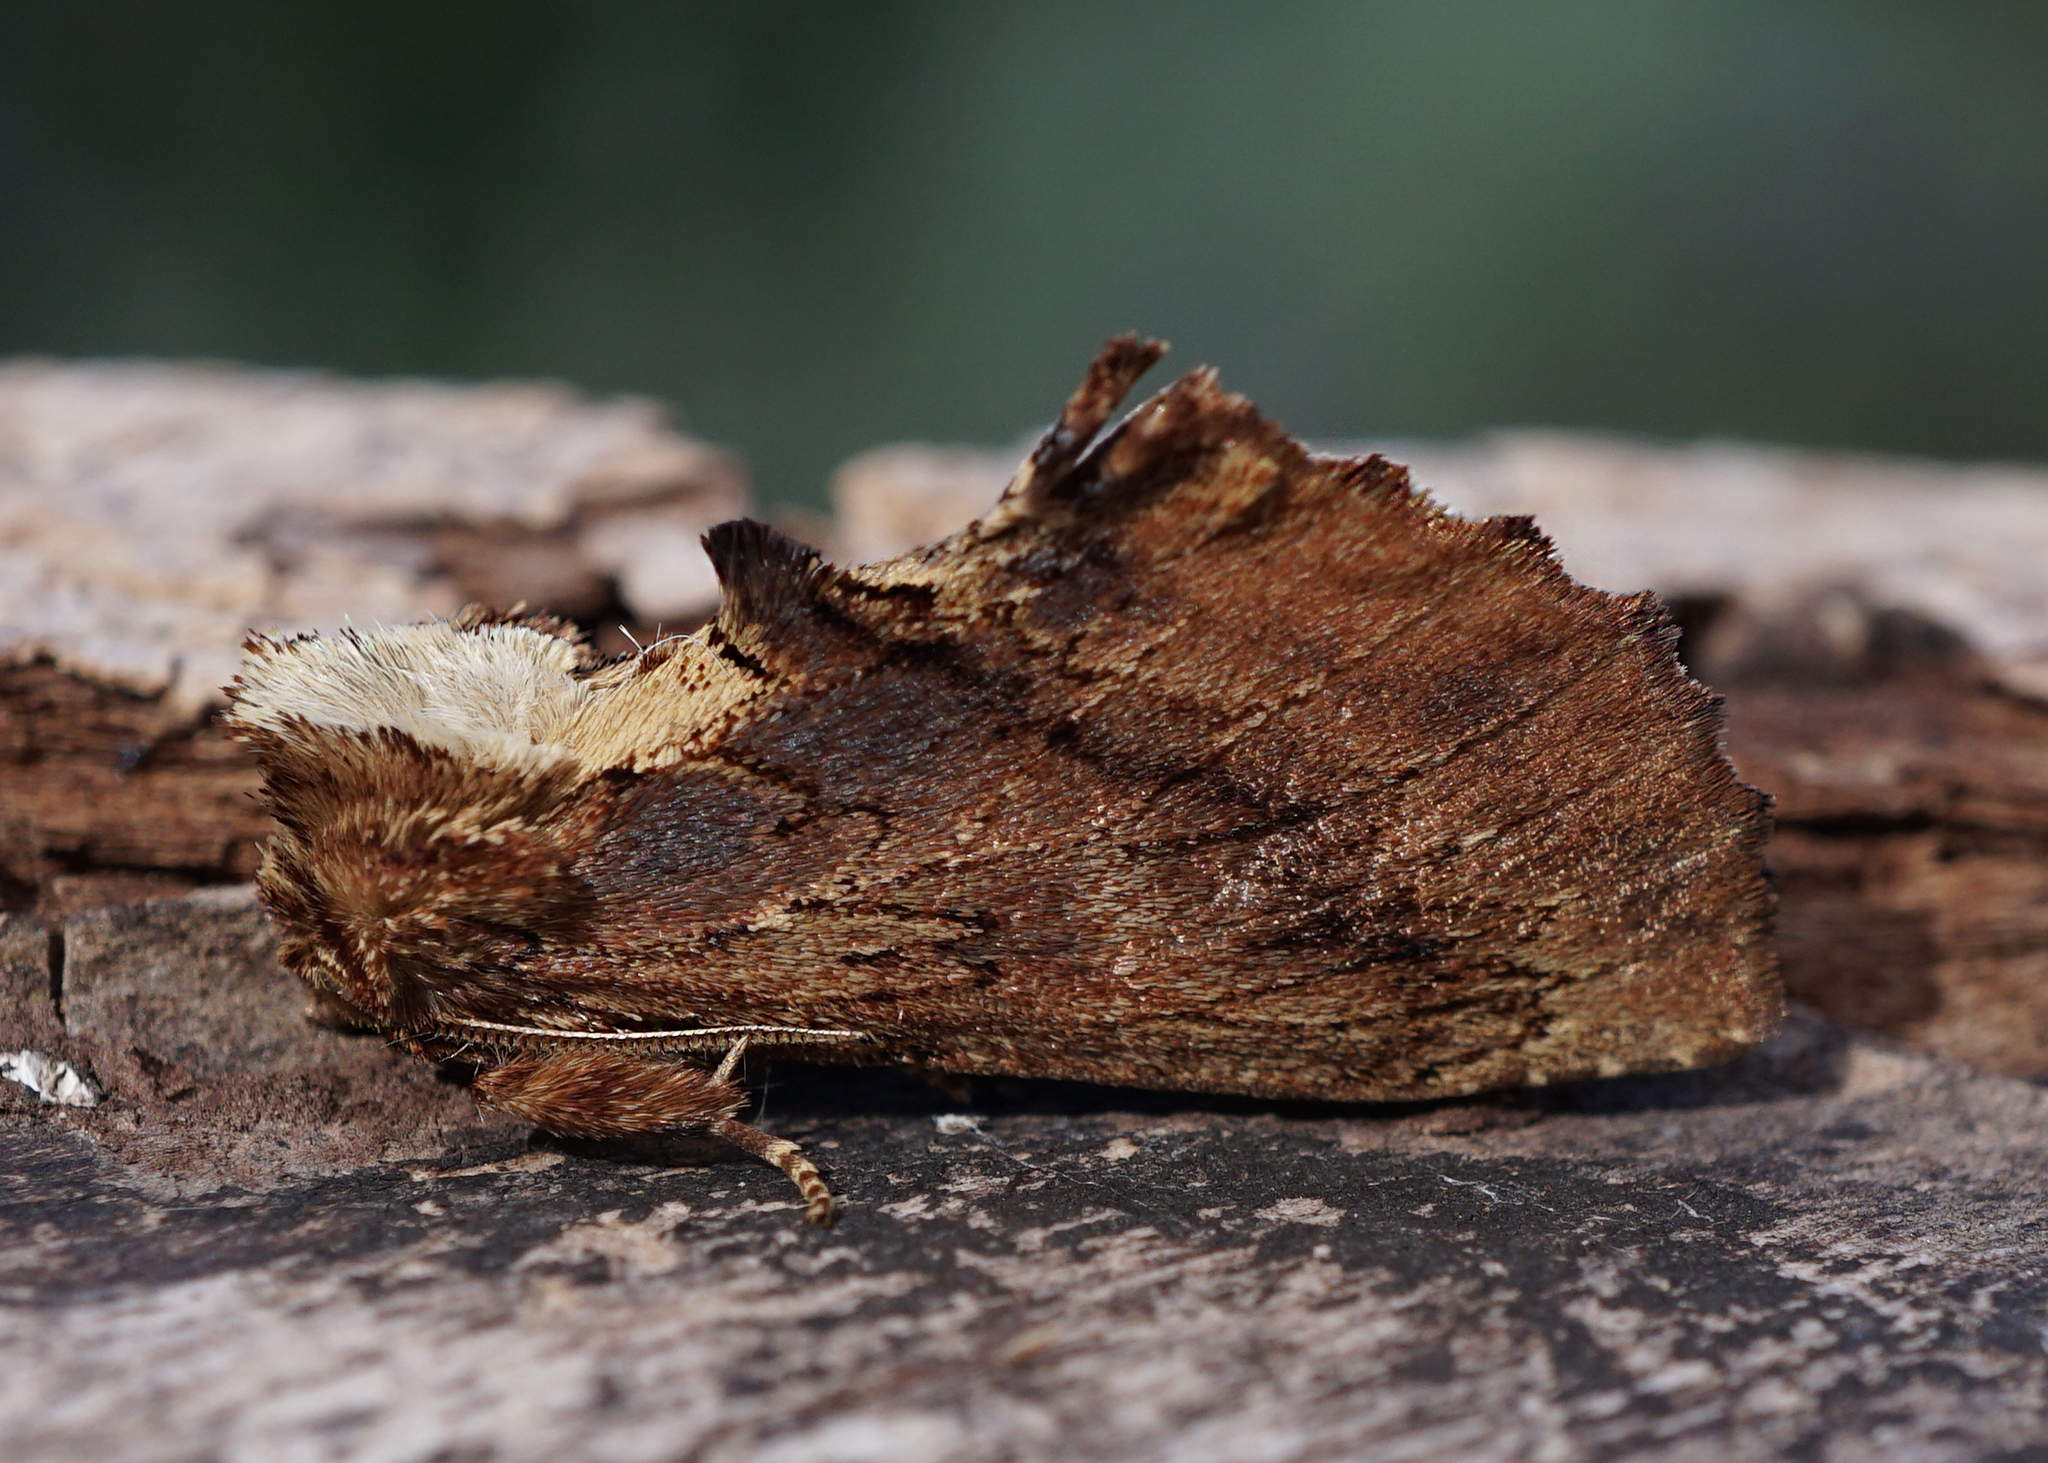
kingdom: Animalia
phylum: Arthropoda
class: Insecta
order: Lepidoptera
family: Notodontidae
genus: Ptilodon
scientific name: Ptilodon capucina
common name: Coxcomb prominent
